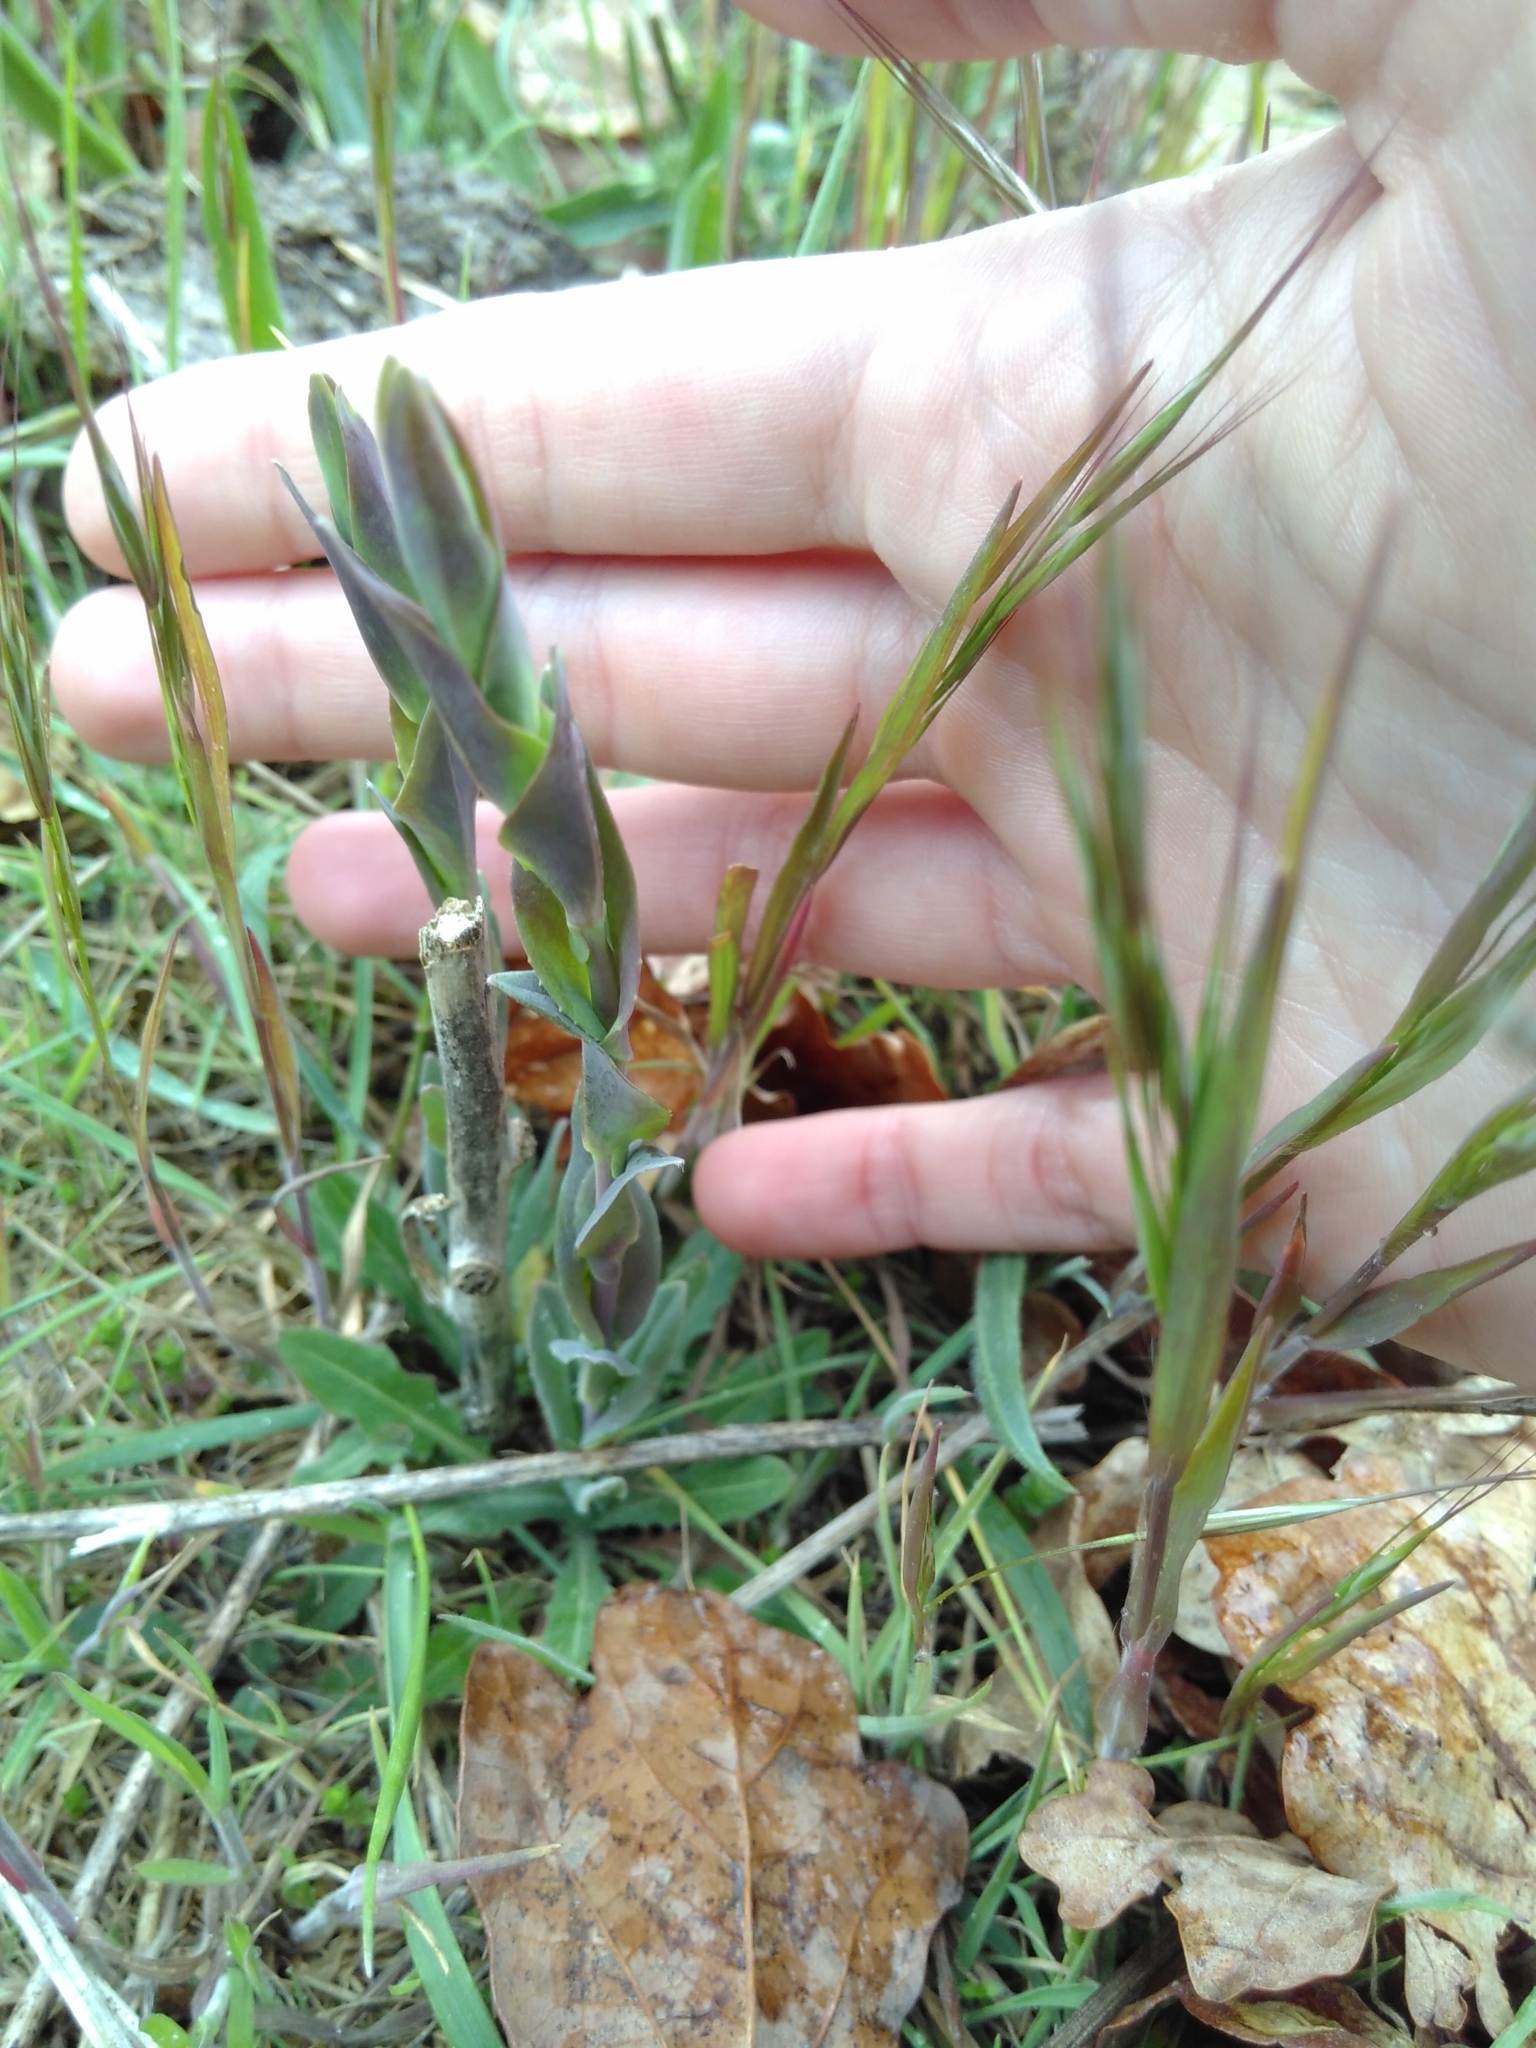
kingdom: Plantae
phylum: Tracheophyta
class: Magnoliopsida
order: Brassicales
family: Brassicaceae
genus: Turritis
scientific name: Turritis glabra
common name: Tower rockcress
